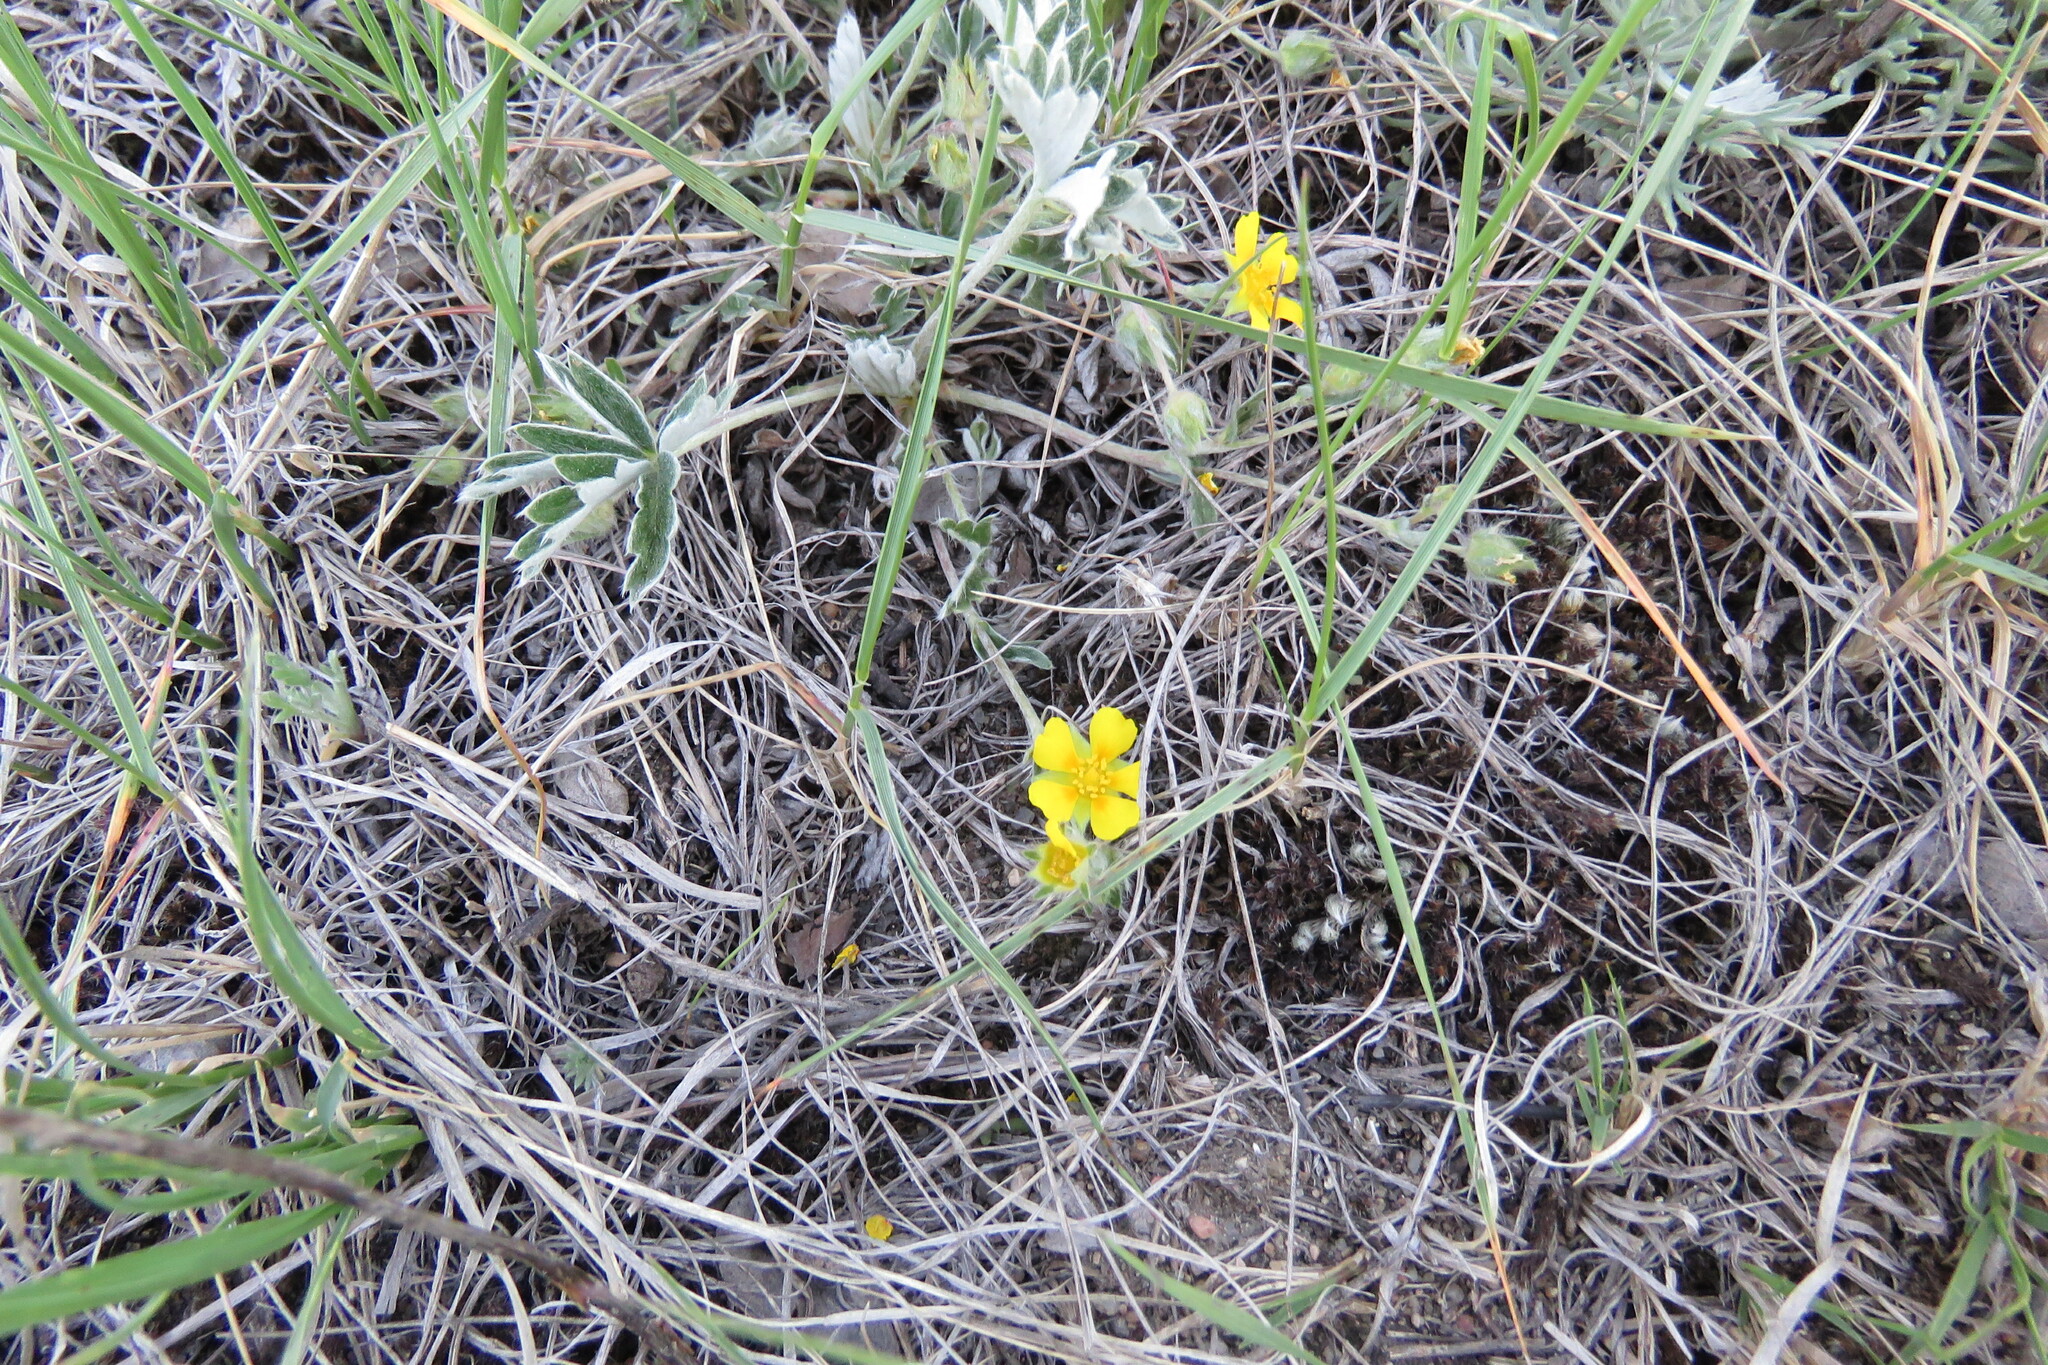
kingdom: Plantae
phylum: Tracheophyta
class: Magnoliopsida
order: Rosales
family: Rosaceae
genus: Potentilla
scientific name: Potentilla concinna
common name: Early cinquefoil
